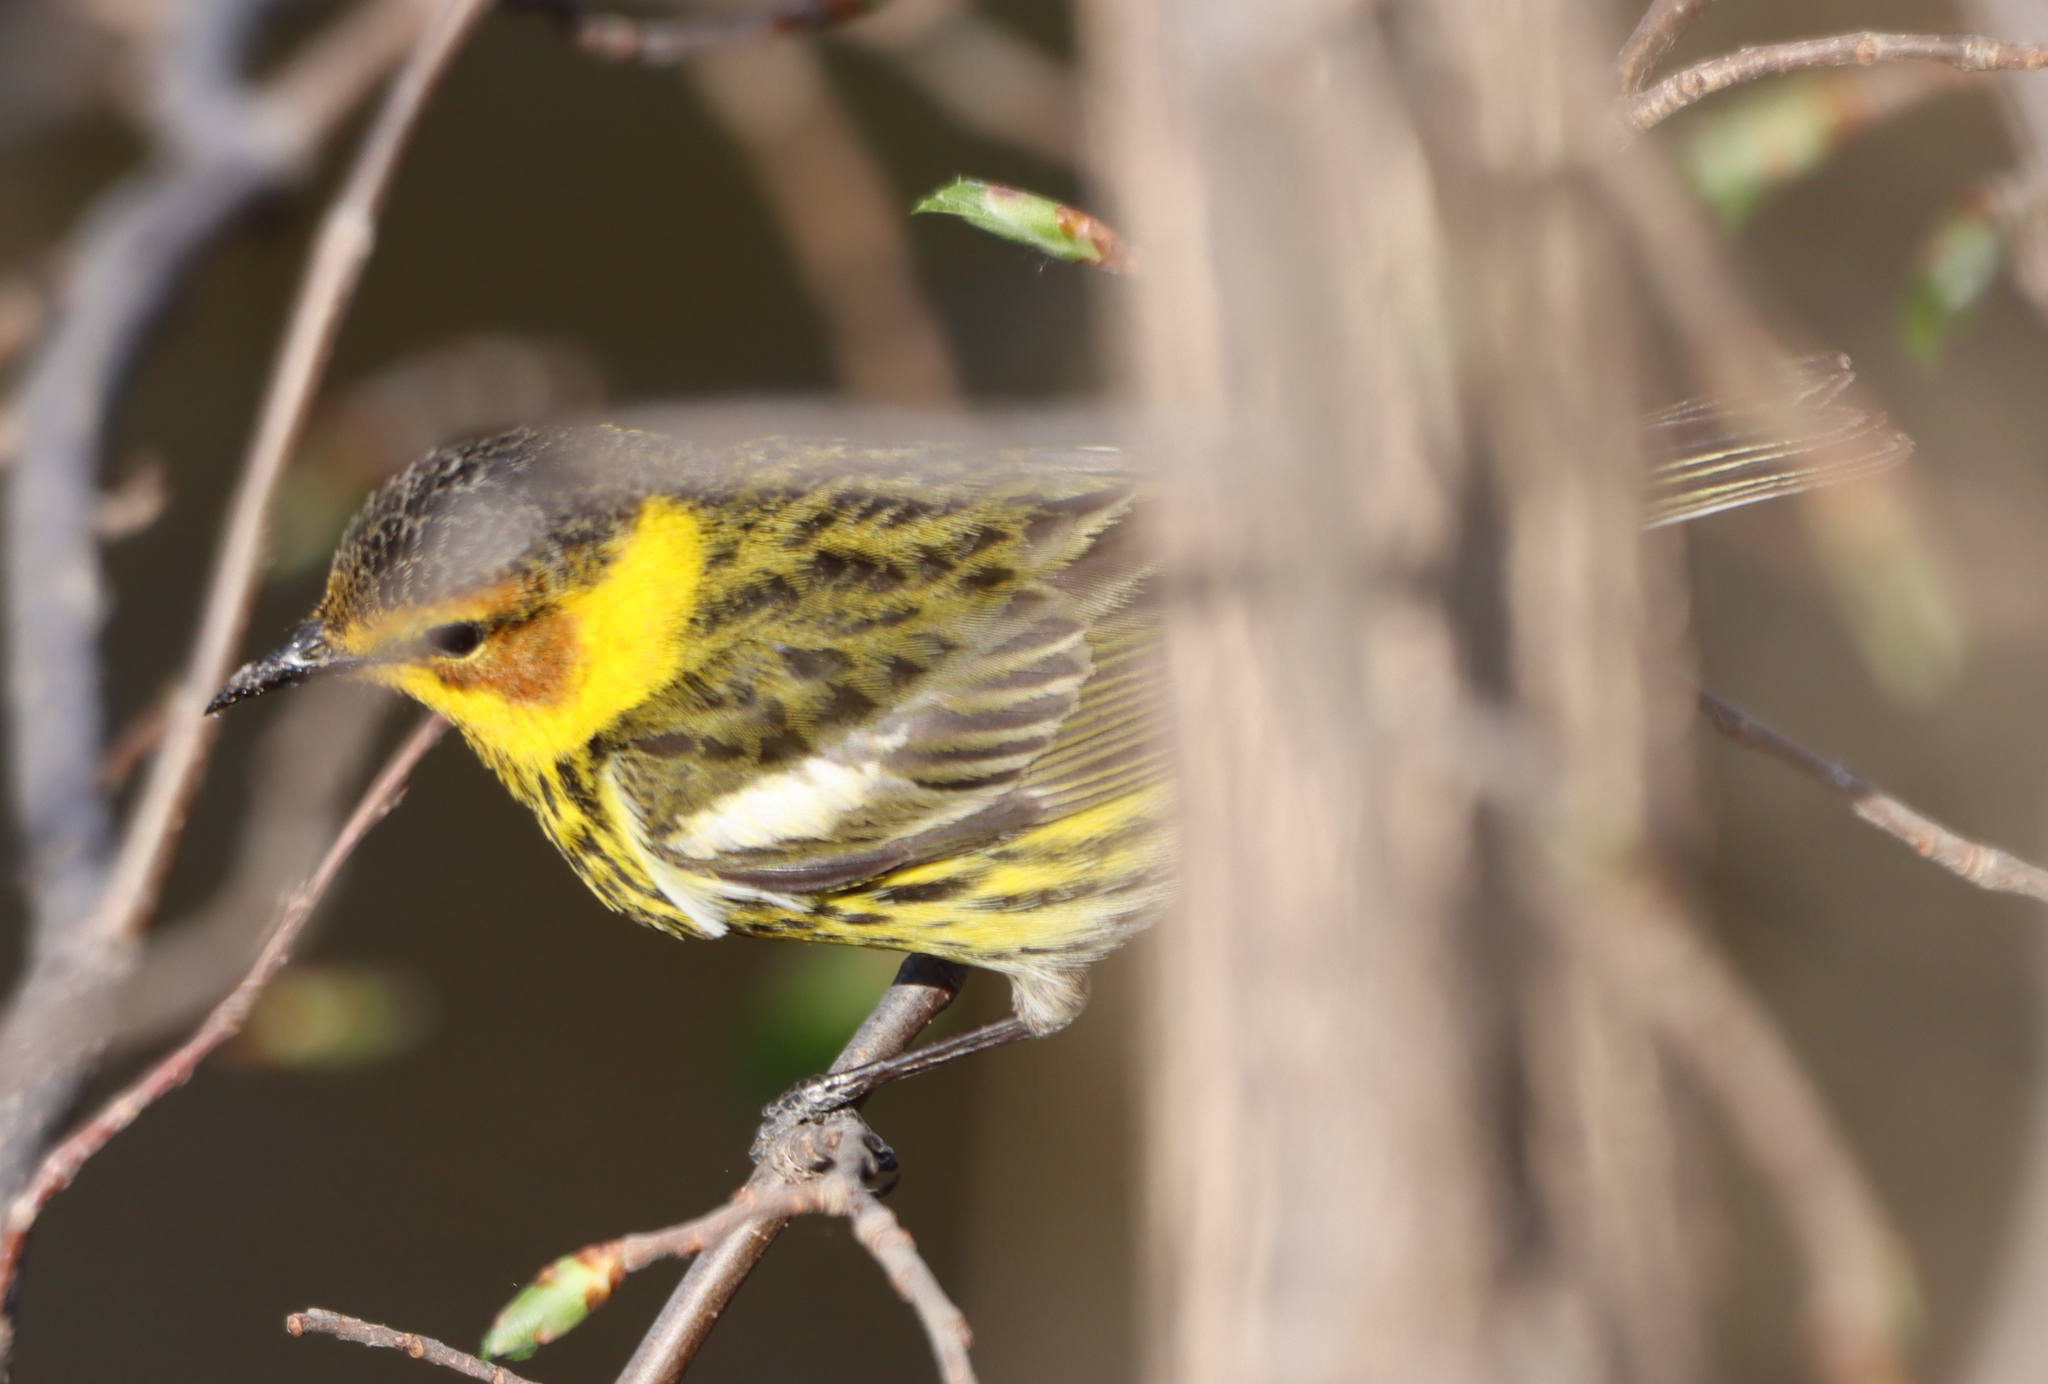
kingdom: Animalia
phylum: Chordata
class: Aves
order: Passeriformes
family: Parulidae
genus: Setophaga
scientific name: Setophaga tigrina
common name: Cape may warbler
